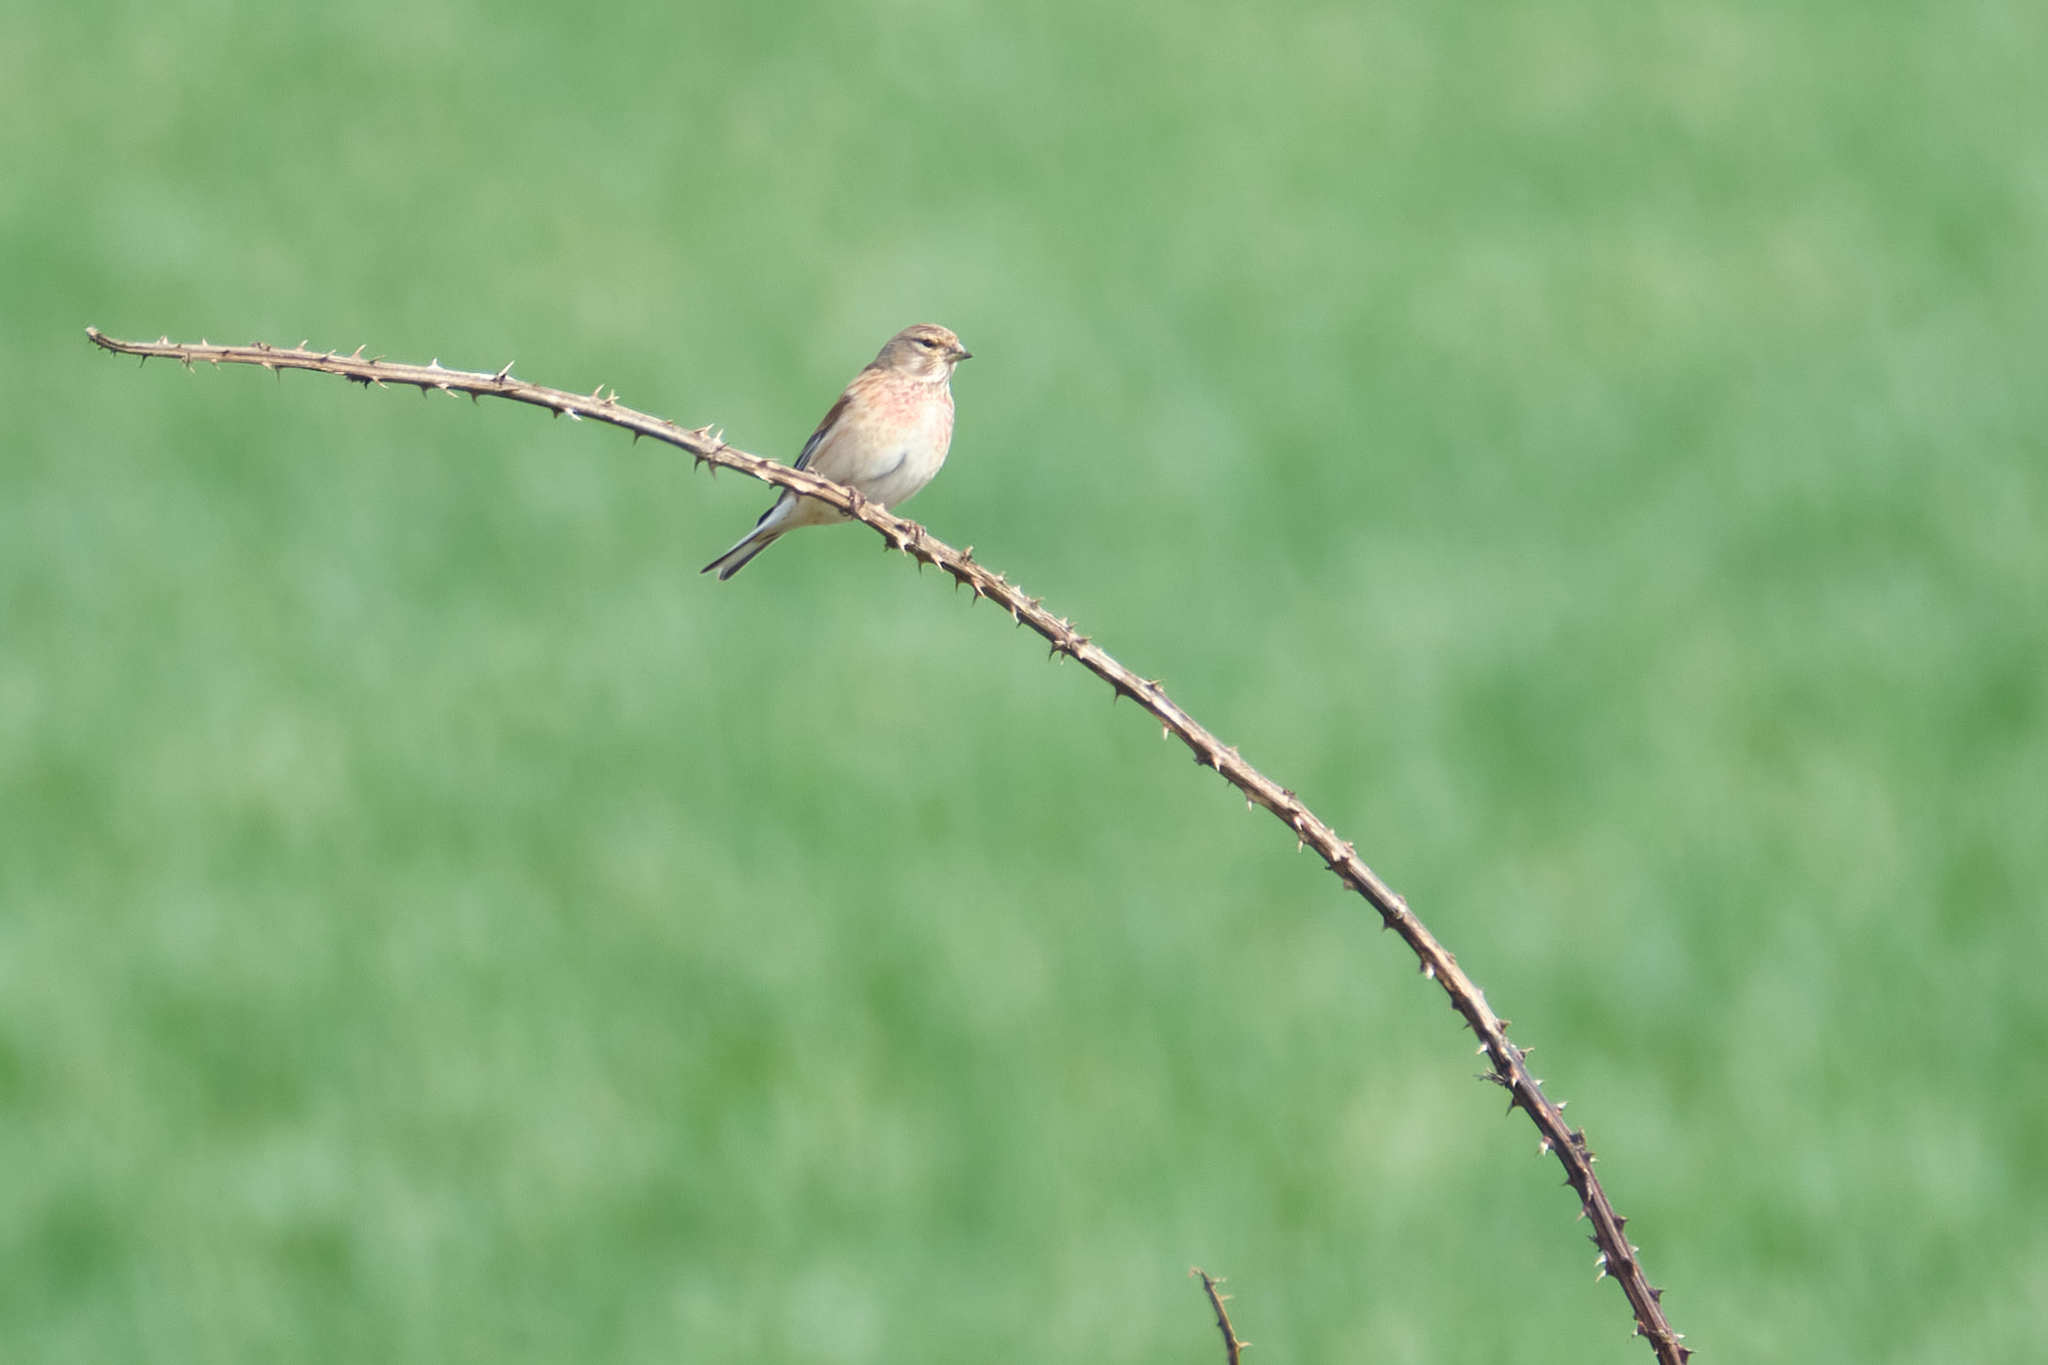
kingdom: Animalia
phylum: Chordata
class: Aves
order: Passeriformes
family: Fringillidae
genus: Linaria
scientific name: Linaria cannabina
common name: Common linnet
